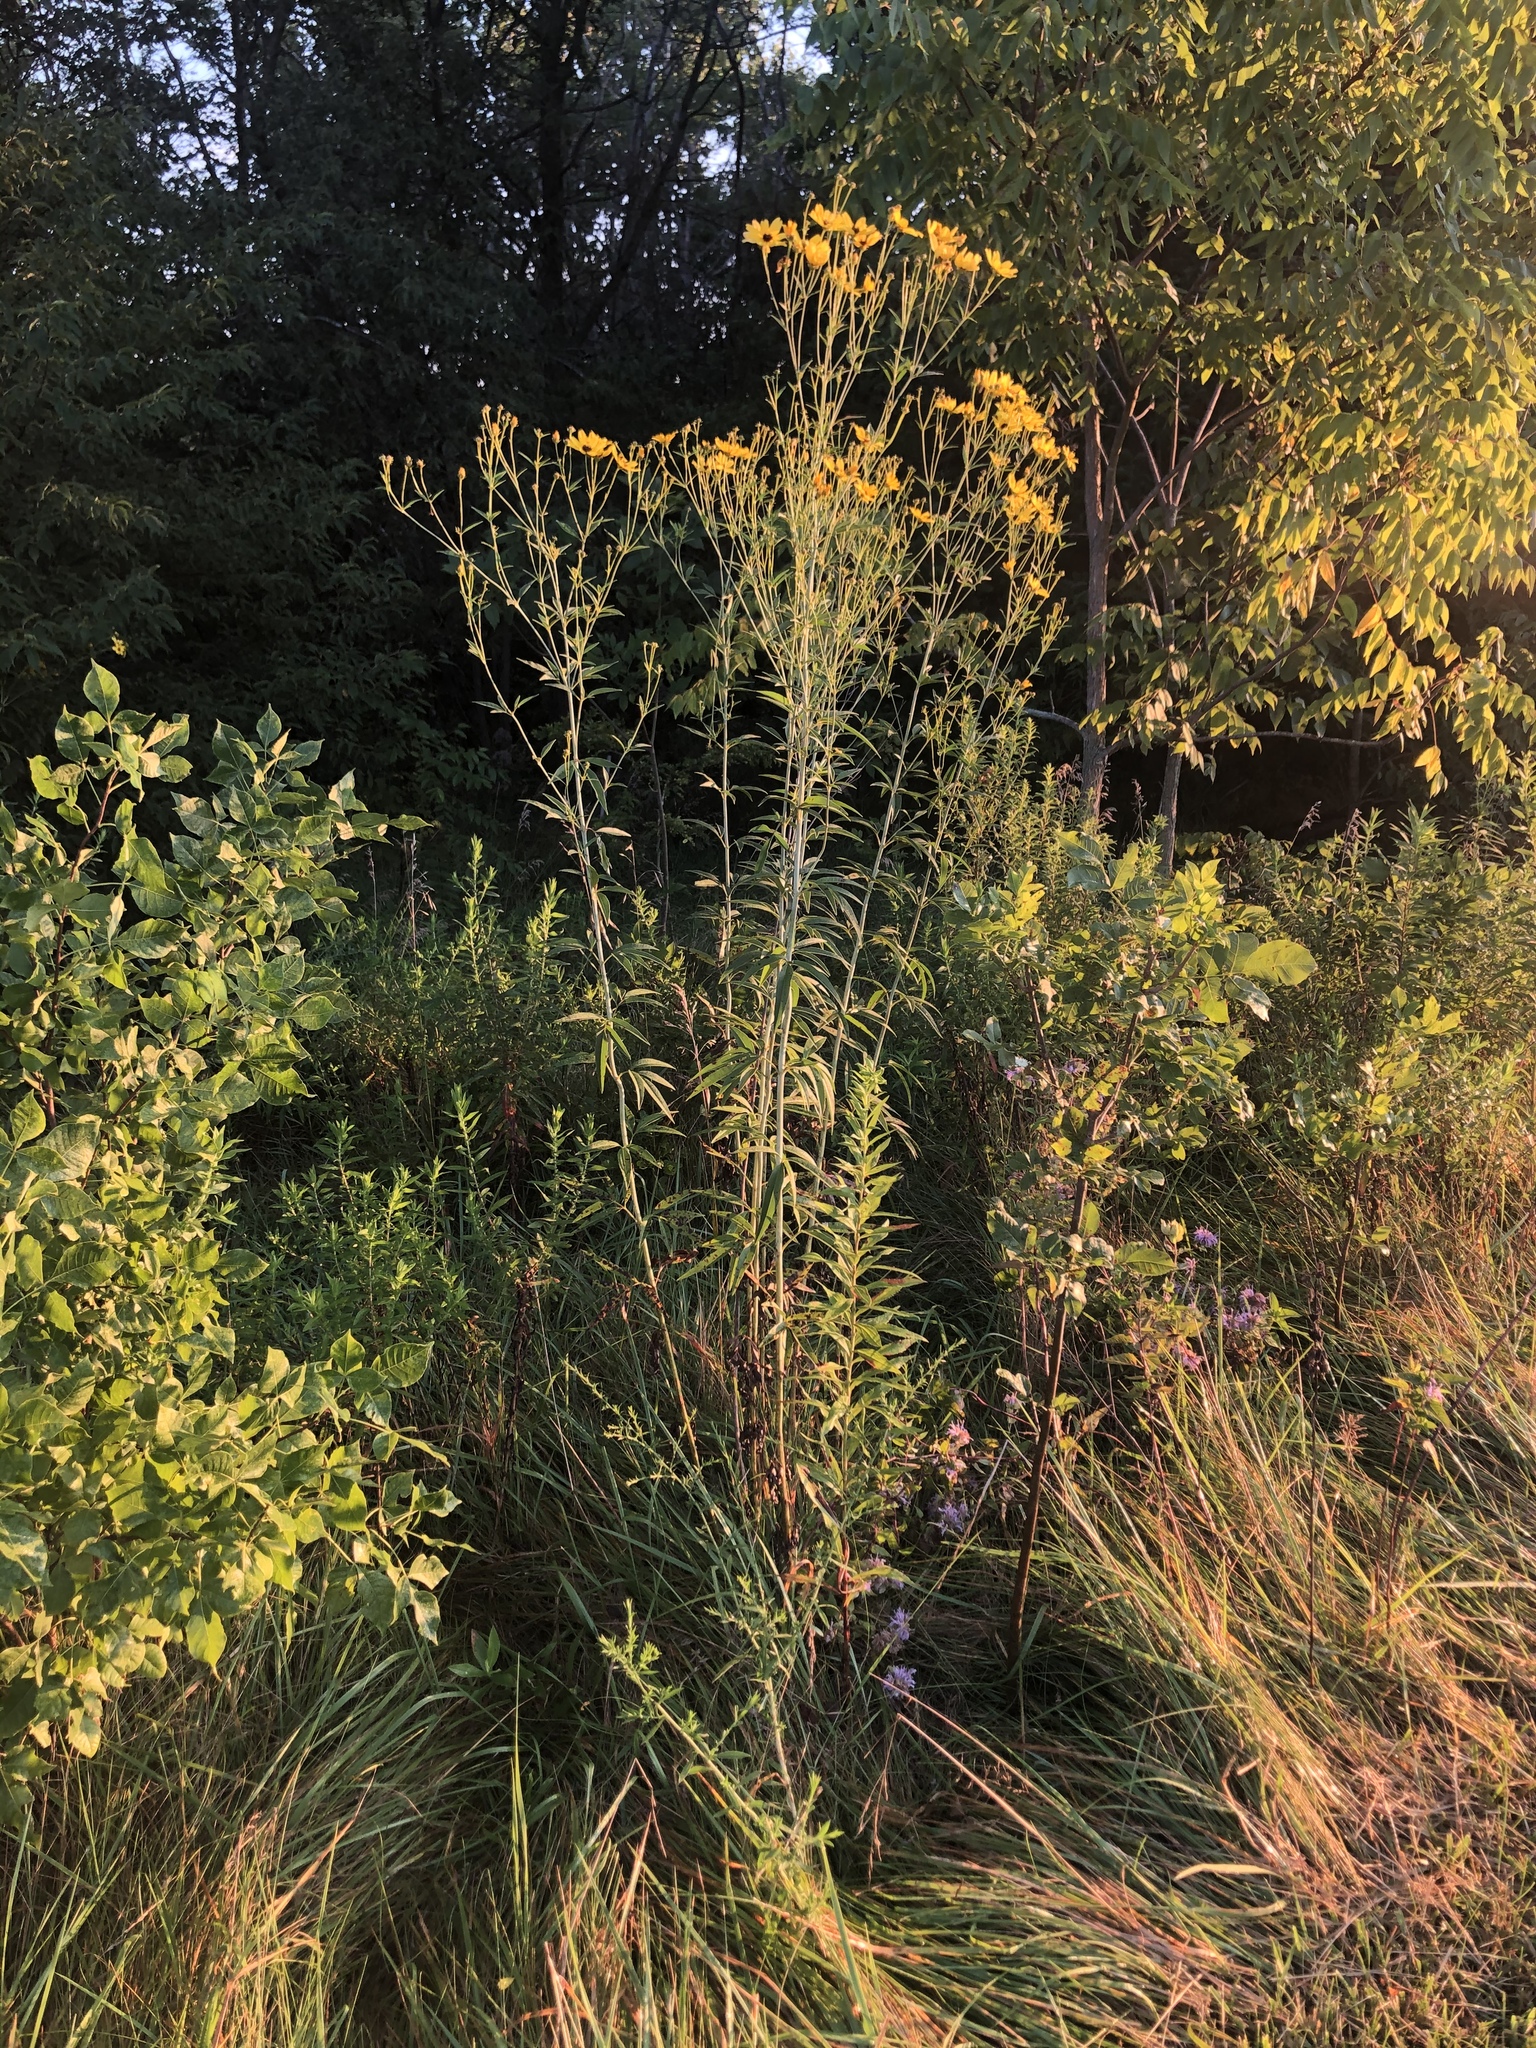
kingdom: Plantae
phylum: Tracheophyta
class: Magnoliopsida
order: Asterales
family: Asteraceae
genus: Coreopsis
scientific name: Coreopsis tripteris
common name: Tall coreopsis
